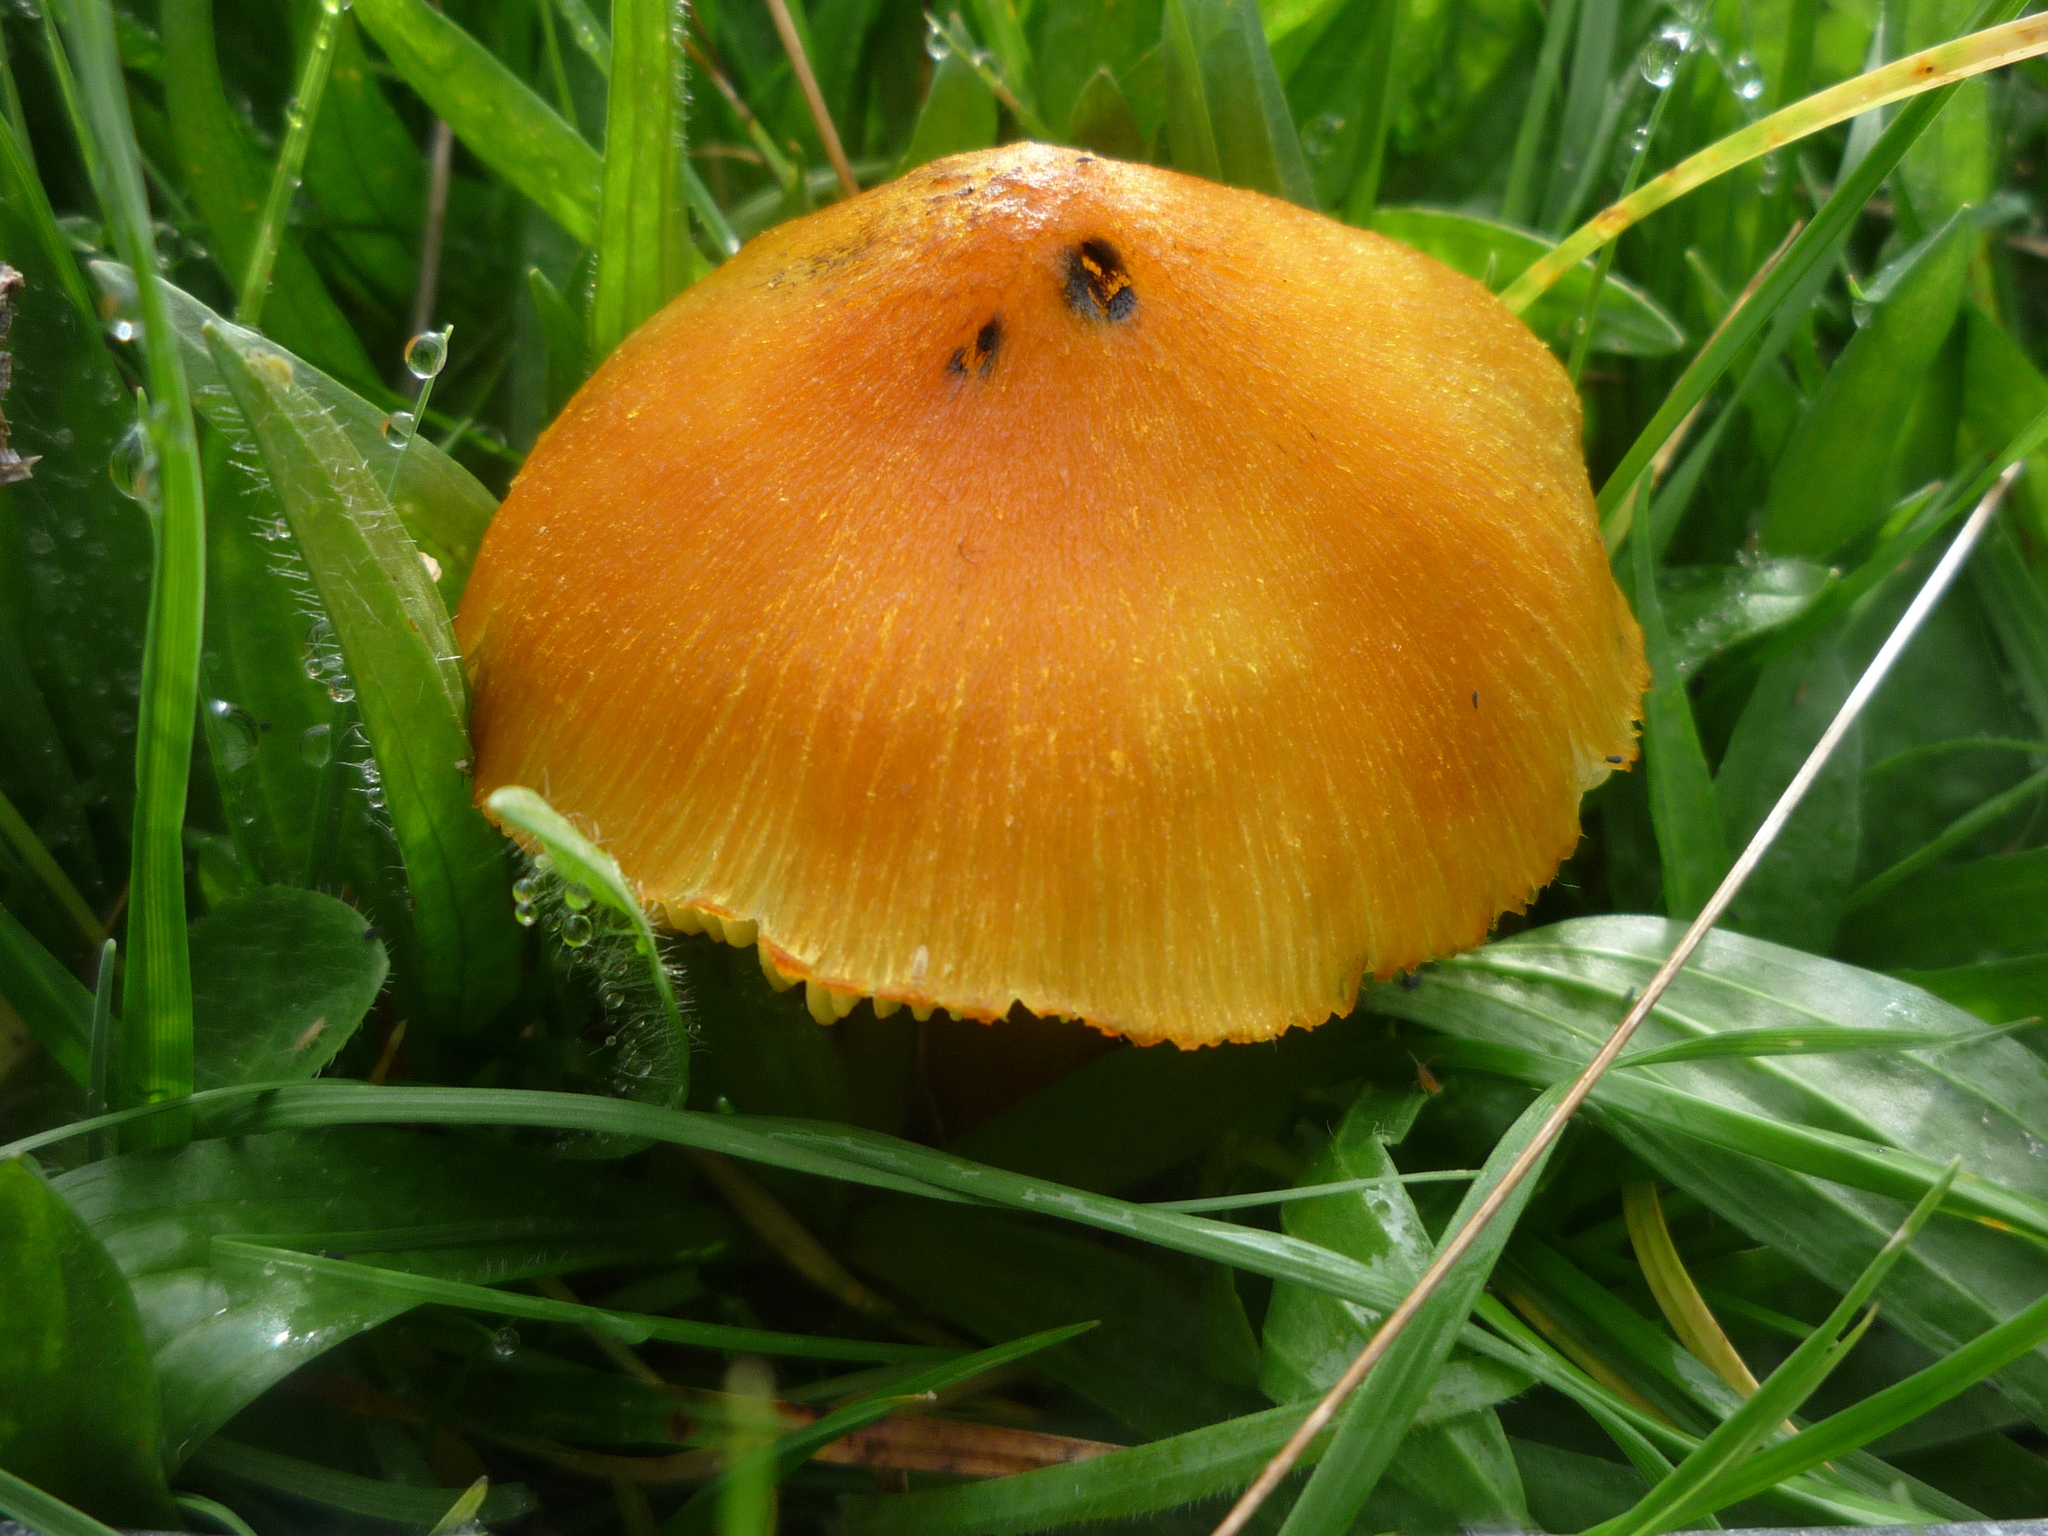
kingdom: Fungi
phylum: Basidiomycota
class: Agaricomycetes
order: Agaricales
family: Hygrophoraceae
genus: Hygrocybe
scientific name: Hygrocybe conica
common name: Blackening wax-cap
